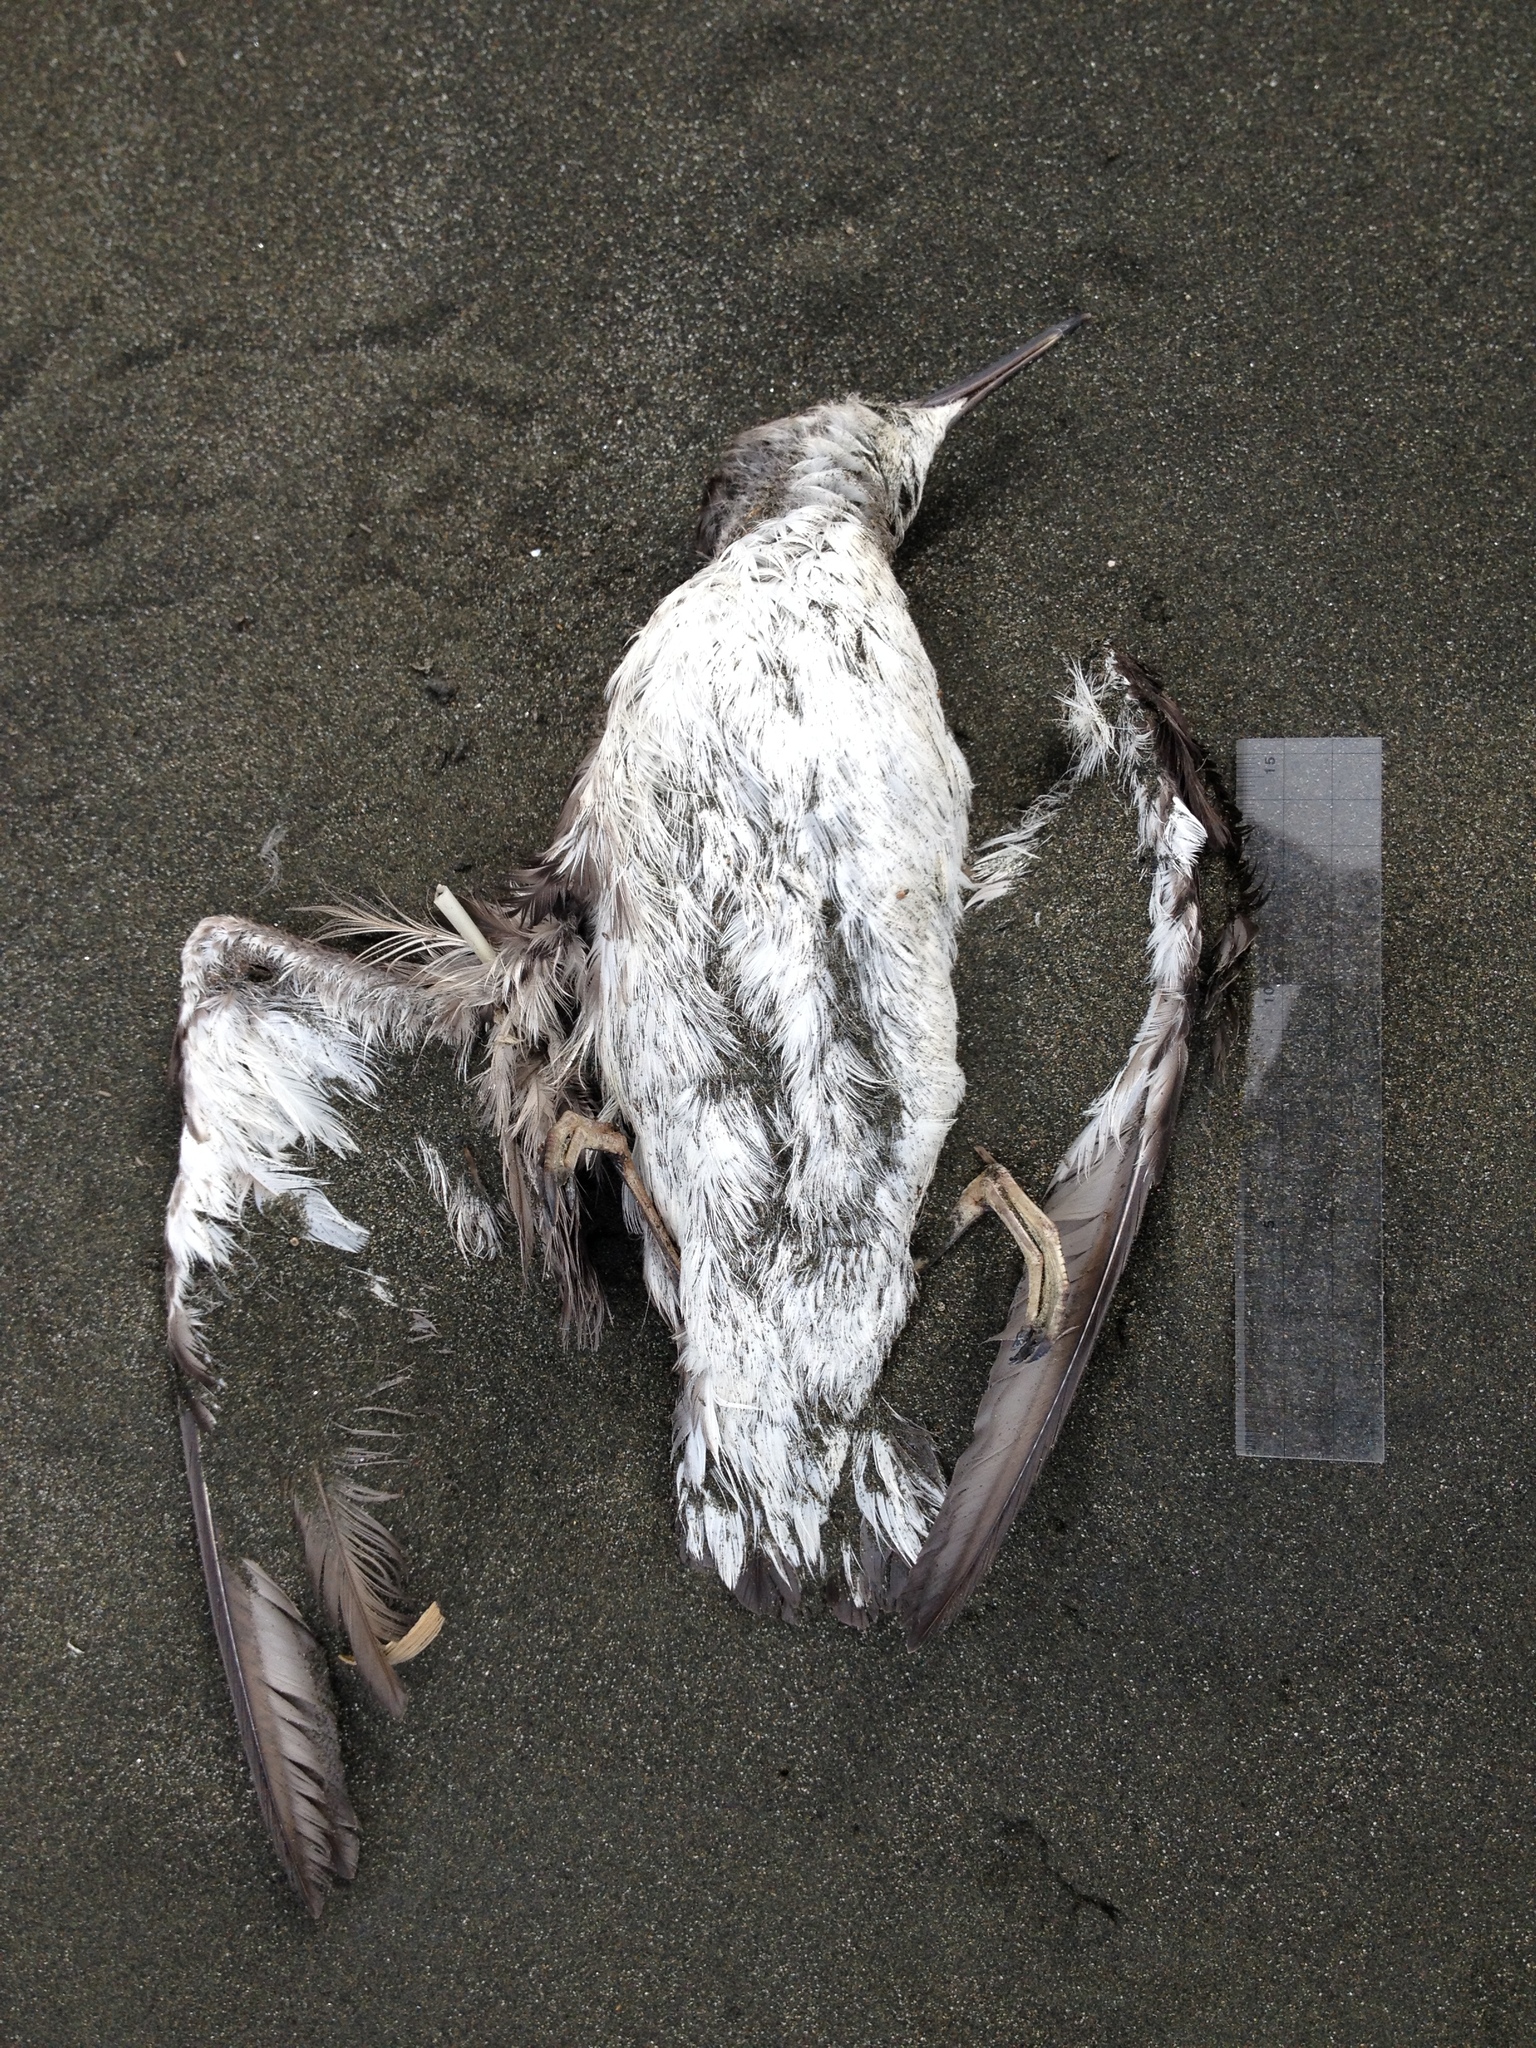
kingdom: Animalia
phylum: Chordata
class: Aves
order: Procellariiformes
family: Procellariidae
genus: Puffinus
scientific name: Puffinus bulleri
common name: Buller's shearwater
